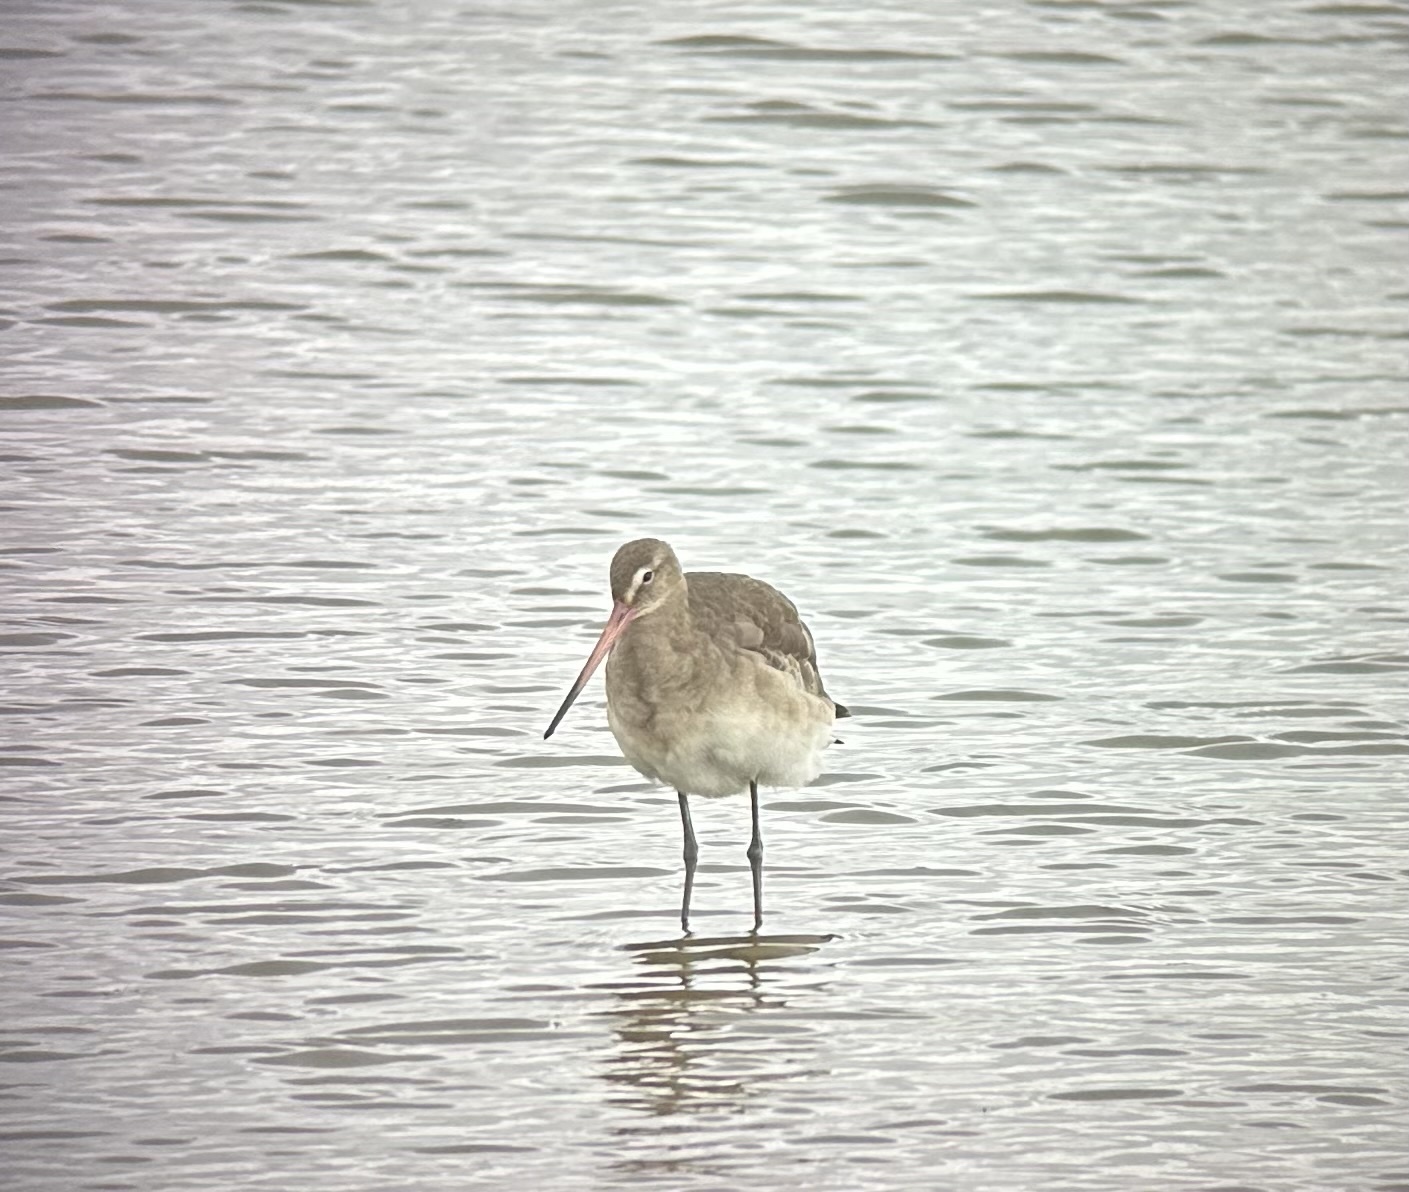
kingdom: Animalia
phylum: Chordata
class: Aves
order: Charadriiformes
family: Scolopacidae
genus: Limosa
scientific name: Limosa limosa
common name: Black-tailed godwit
